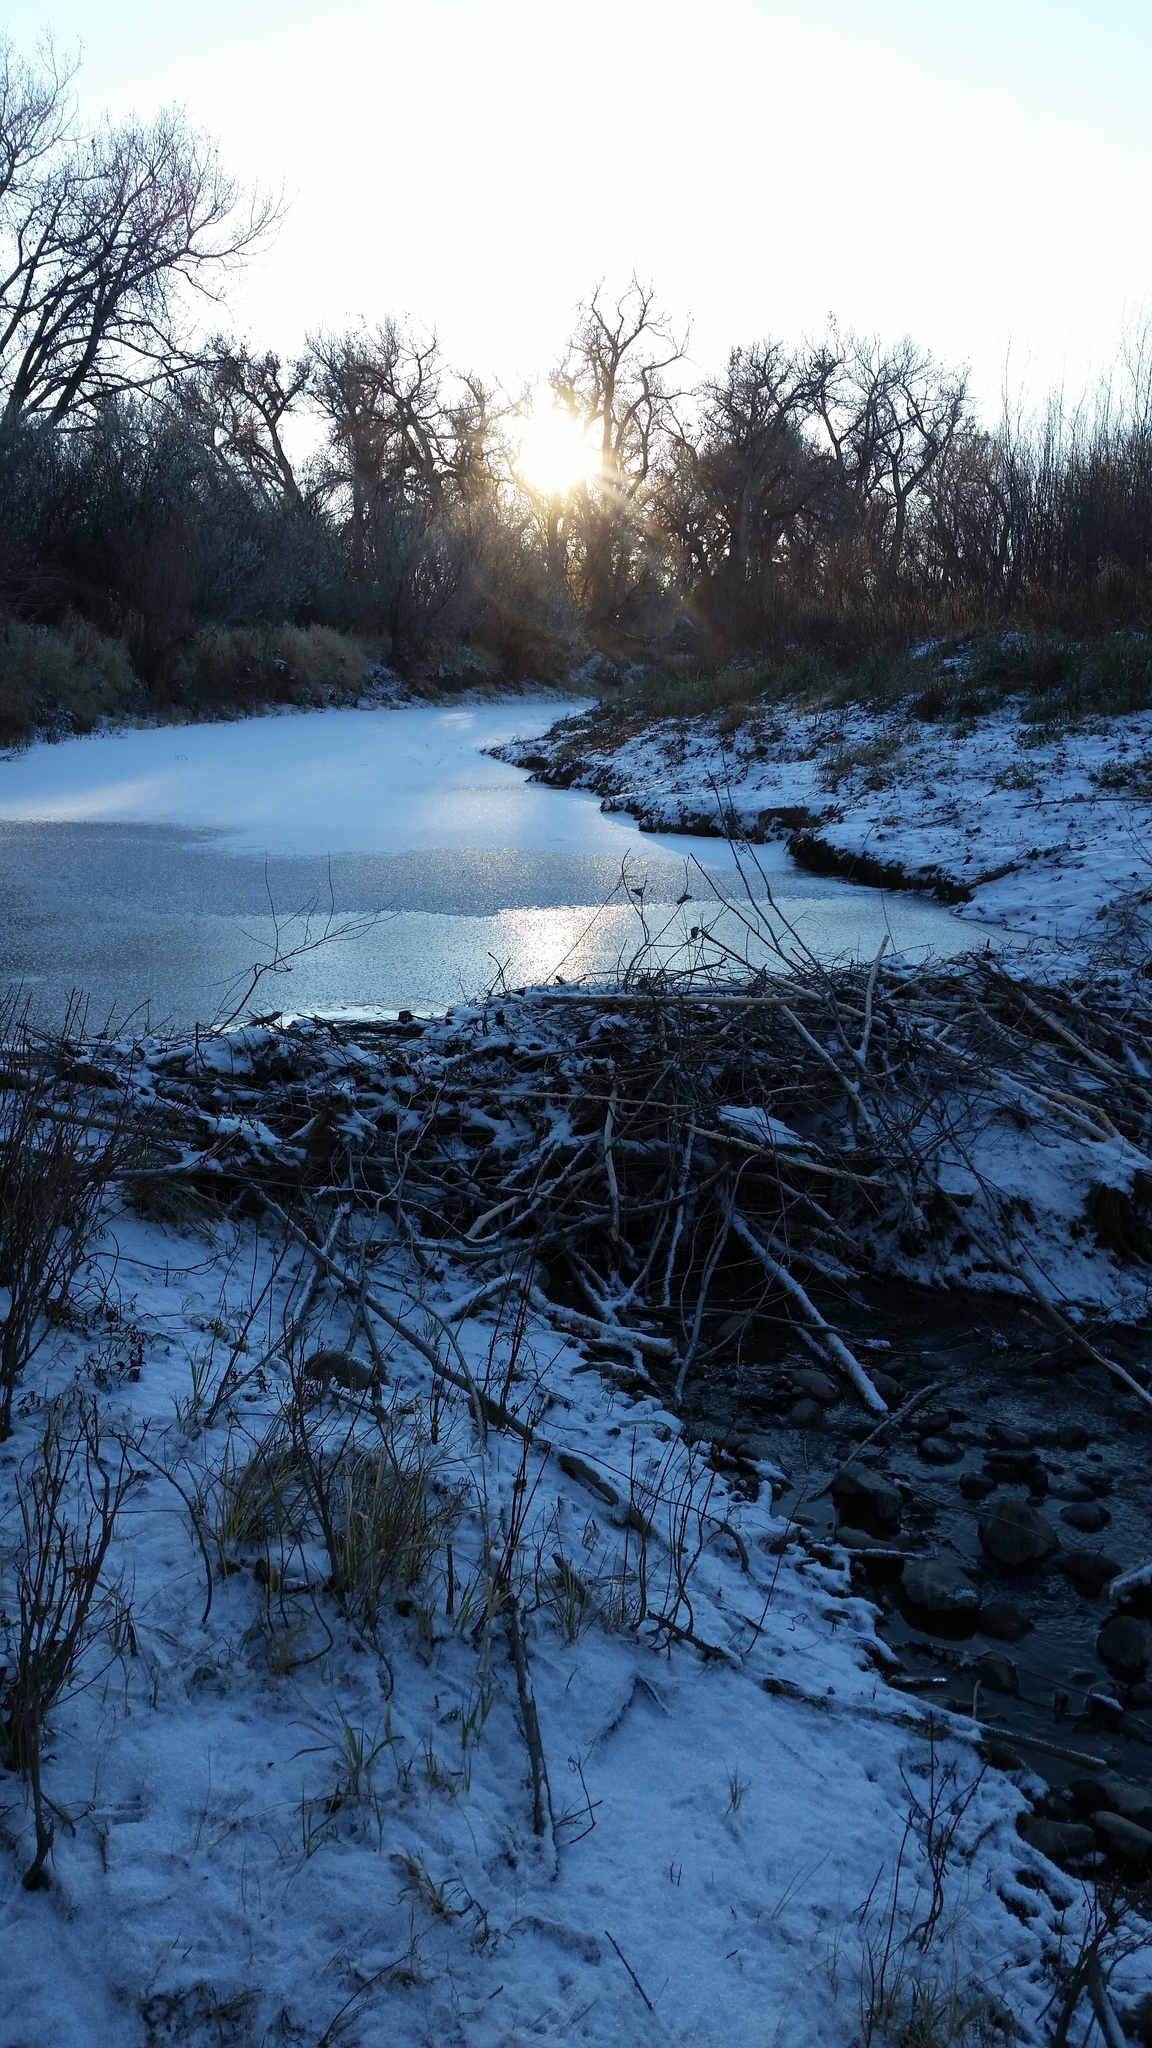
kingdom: Animalia
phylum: Chordata
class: Mammalia
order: Rodentia
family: Castoridae
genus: Castor
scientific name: Castor canadensis
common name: American beaver
